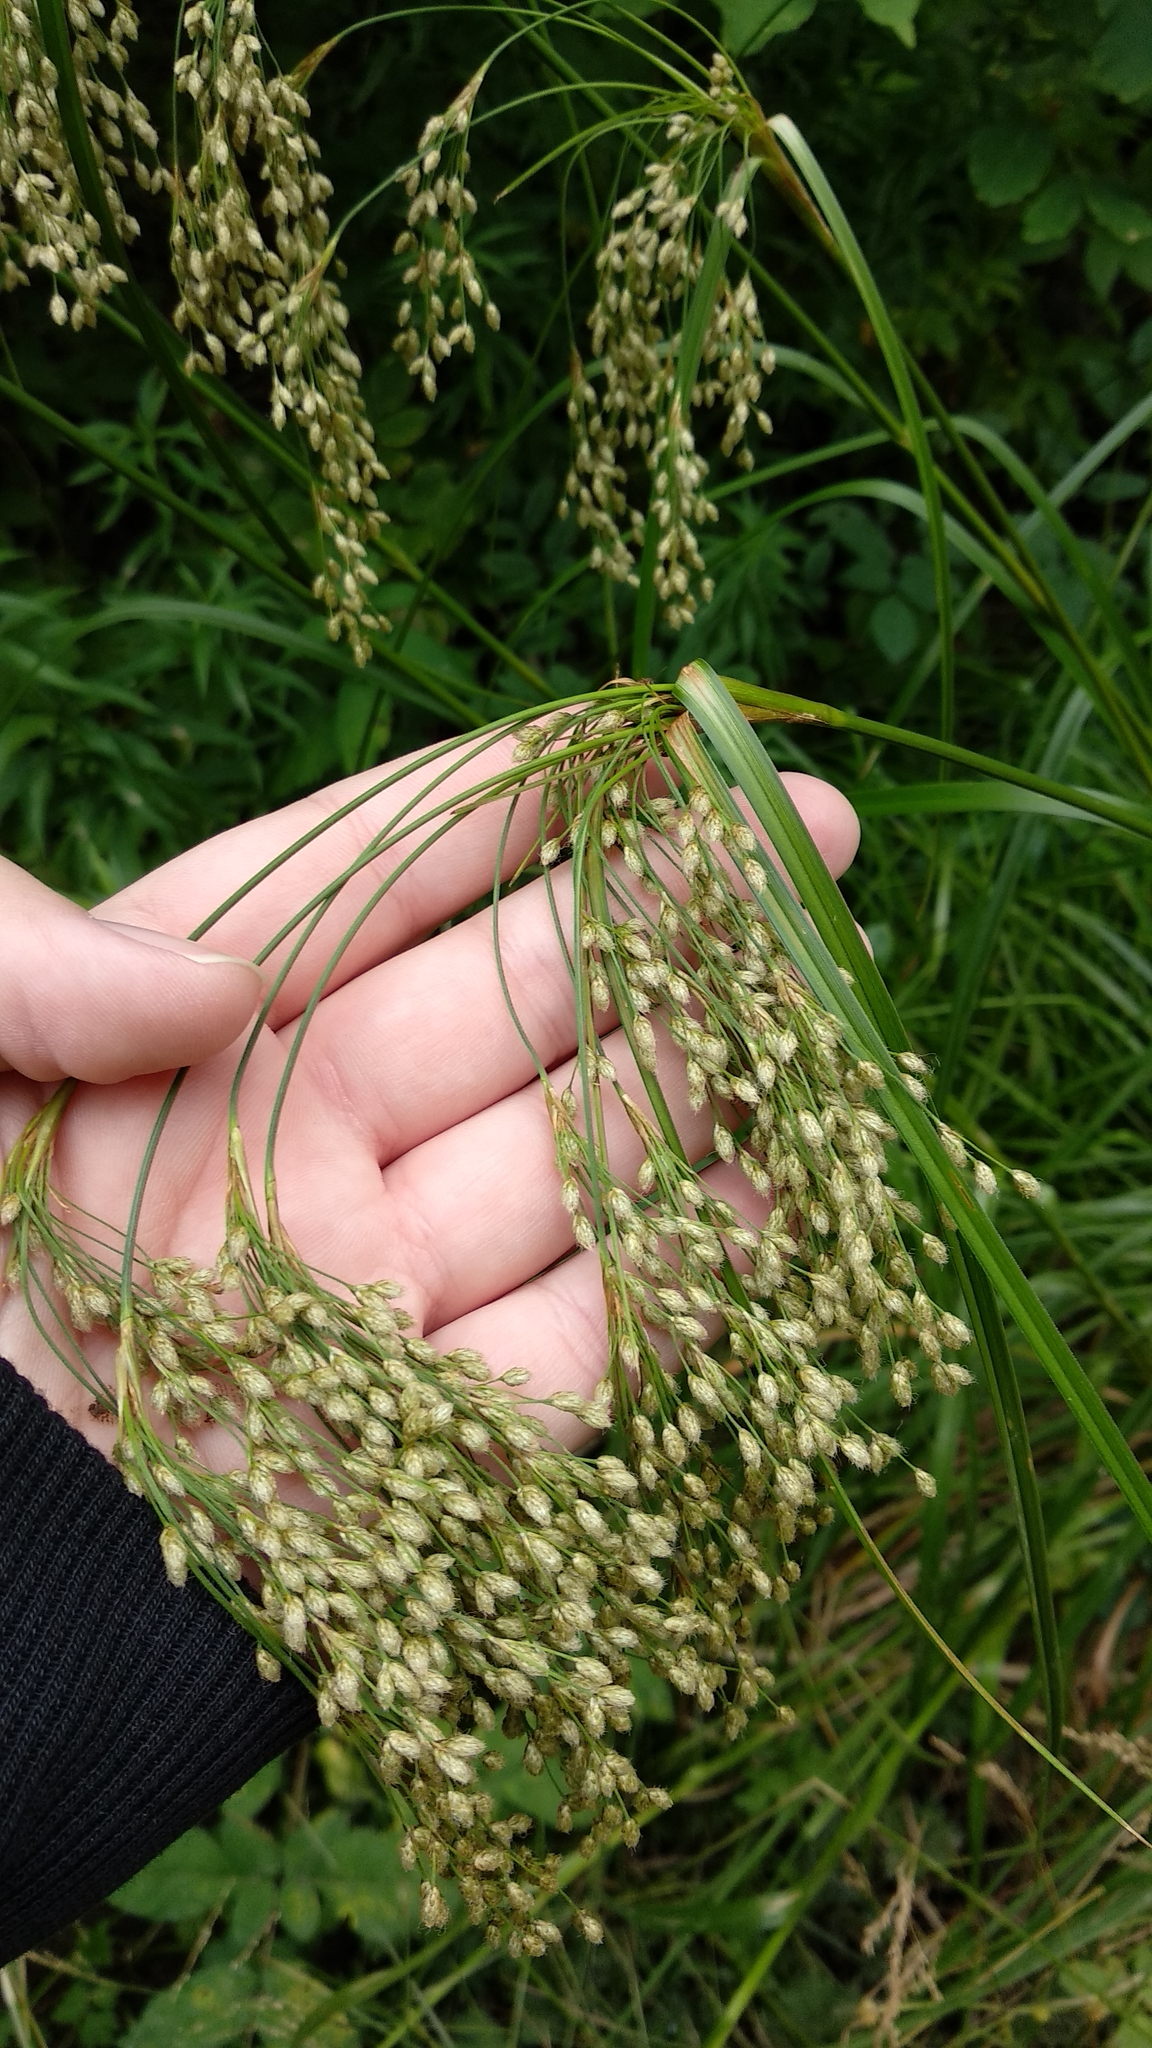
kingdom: Plantae
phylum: Tracheophyta
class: Liliopsida
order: Poales
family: Poaceae
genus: Glyceria
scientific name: Glyceria canadensis
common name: Canada mannagrass
